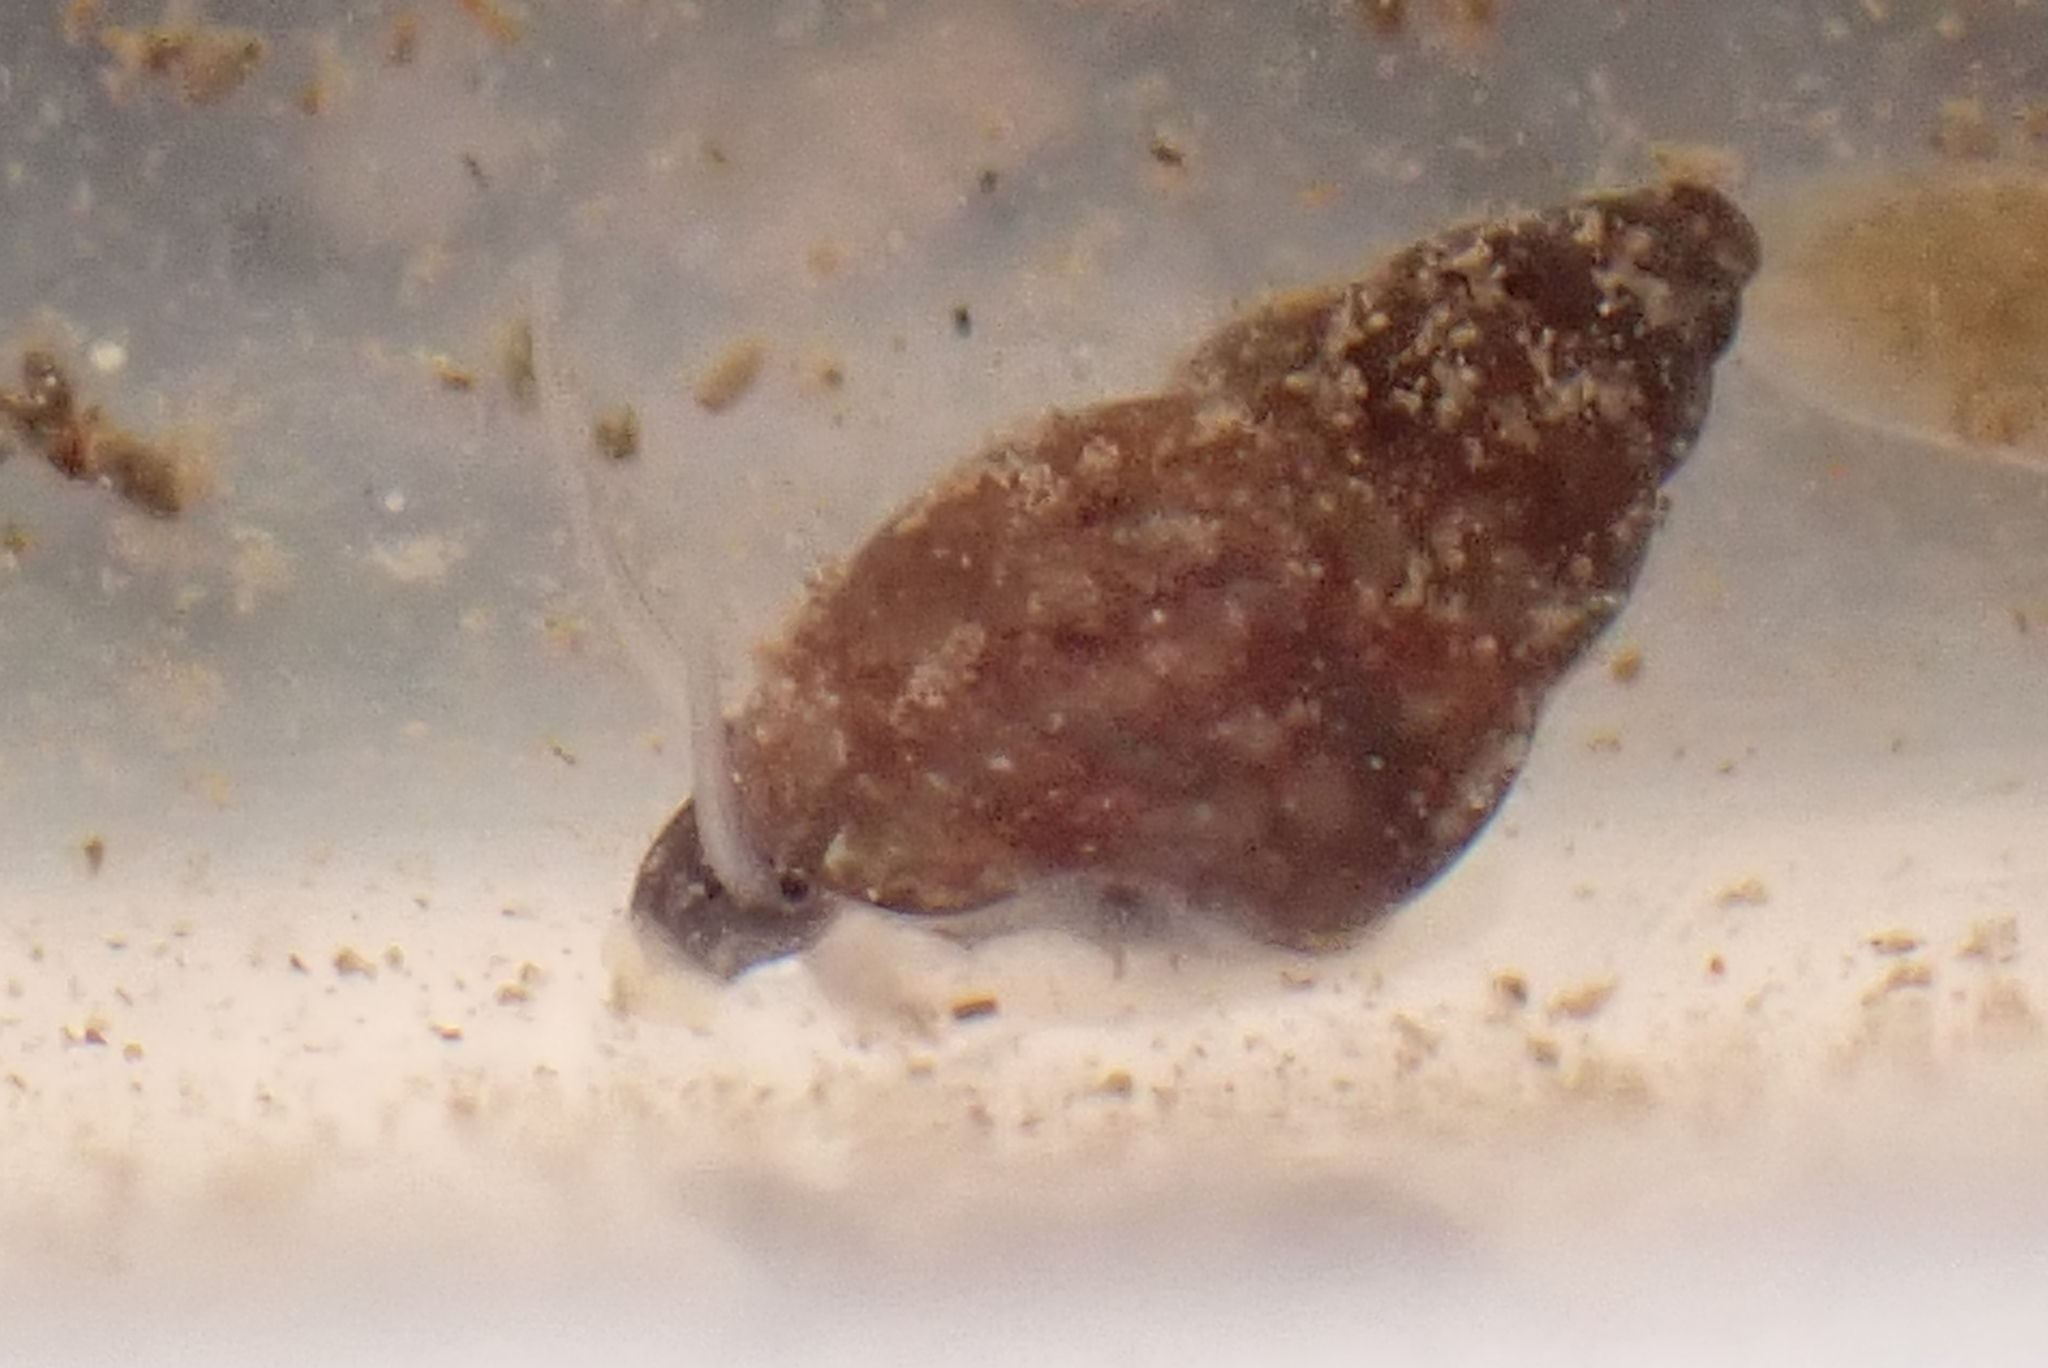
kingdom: Animalia
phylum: Mollusca
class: Gastropoda
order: Littorinimorpha
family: Tateidae
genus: Potamopyrgus
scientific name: Potamopyrgus antipodarum
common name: Jenkins' spire snail
